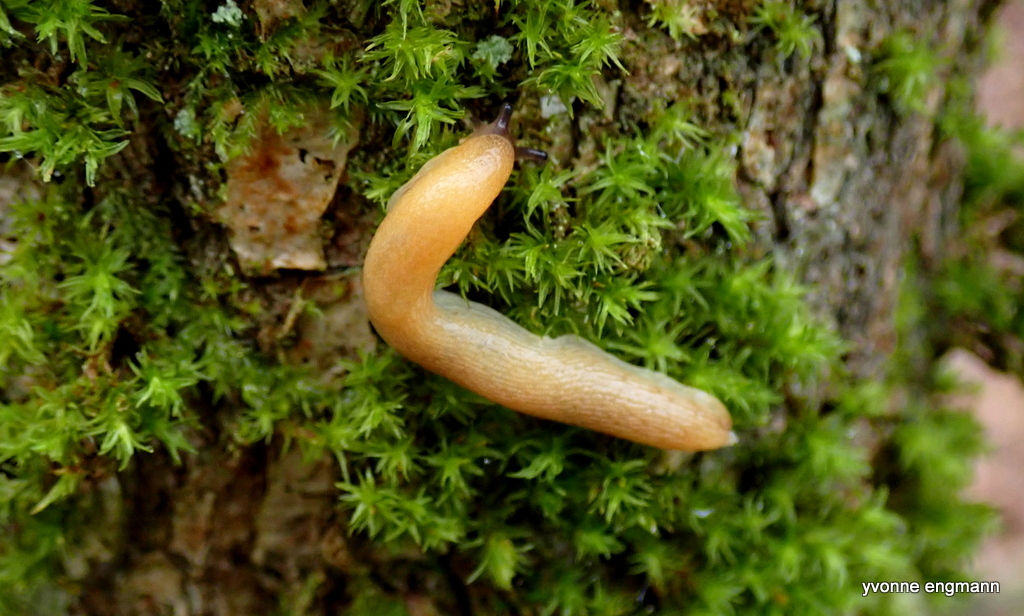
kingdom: Animalia
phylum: Mollusca
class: Gastropoda
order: Stylommatophora
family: Arionidae
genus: Arion
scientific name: Arion fuscus
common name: Northern dusky slug
